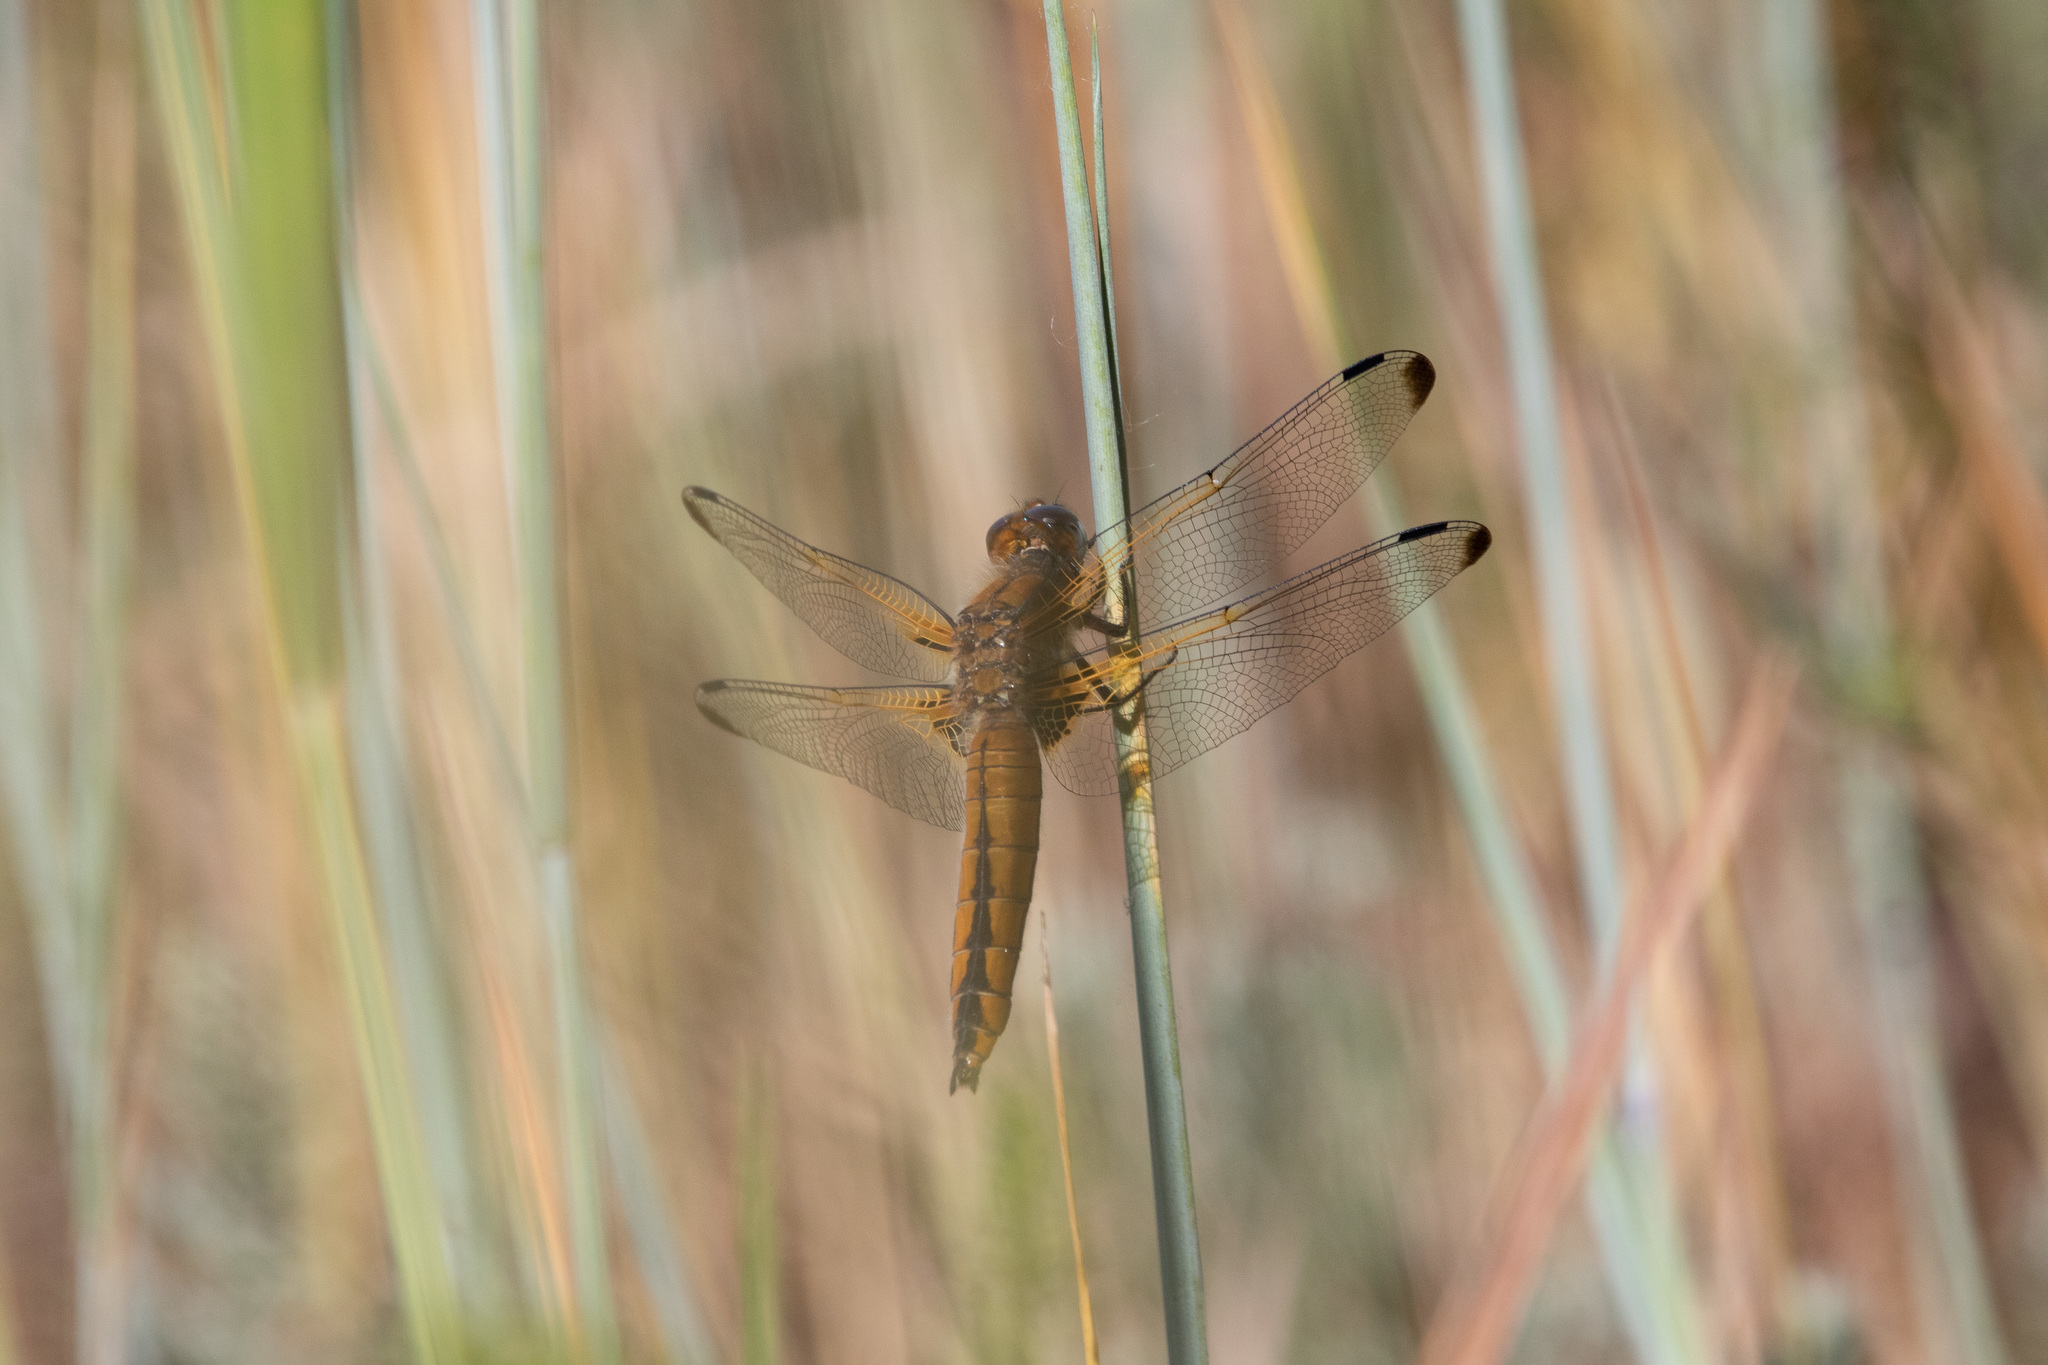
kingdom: Animalia
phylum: Arthropoda
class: Insecta
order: Odonata
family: Libellulidae
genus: Libellula
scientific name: Libellula fulva
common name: Blue chaser
